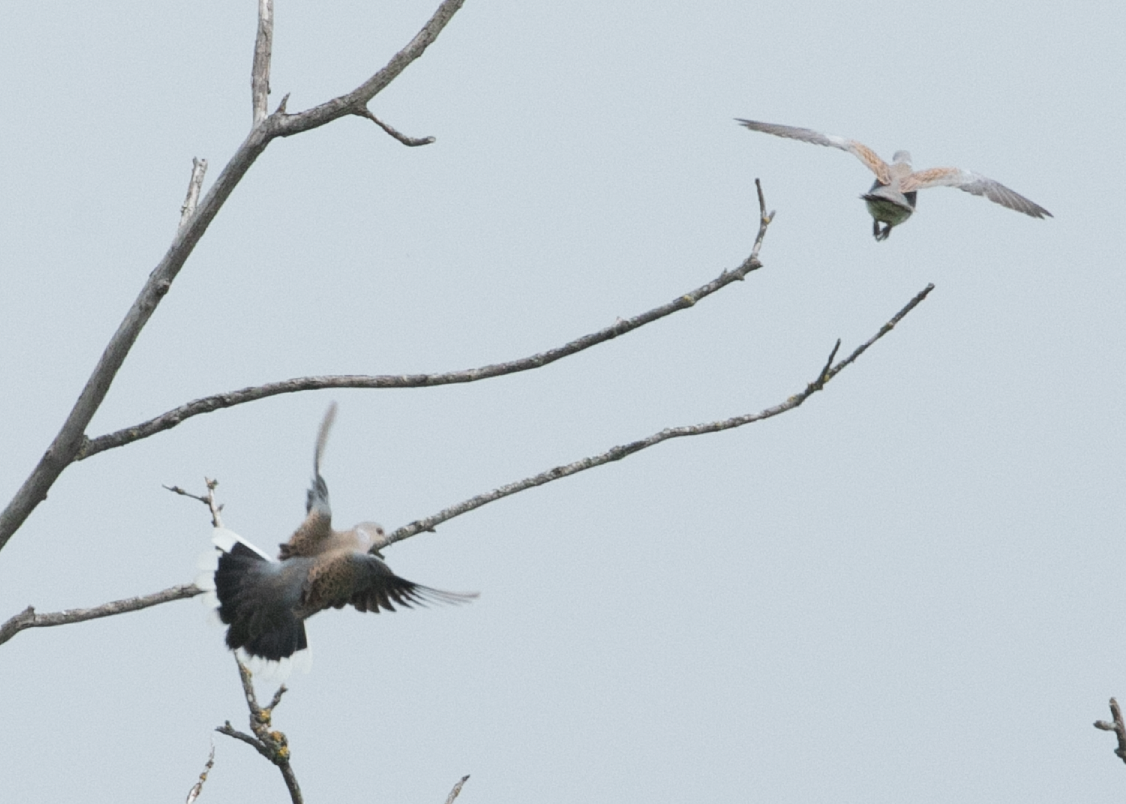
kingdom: Animalia
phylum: Chordata
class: Aves
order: Columbiformes
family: Columbidae
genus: Streptopelia
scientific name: Streptopelia turtur
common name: European turtle dove
